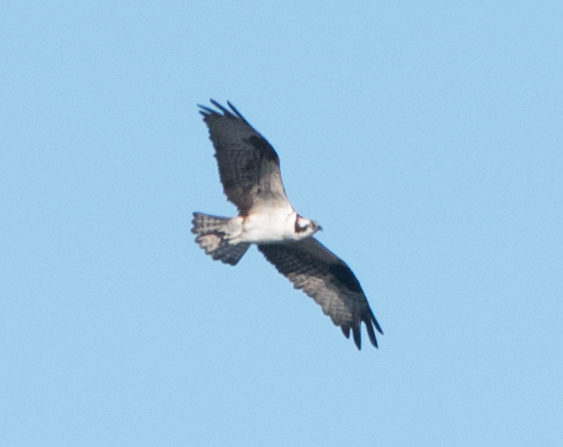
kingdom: Animalia
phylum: Chordata
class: Aves
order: Accipitriformes
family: Pandionidae
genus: Pandion
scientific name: Pandion haliaetus
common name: Osprey
